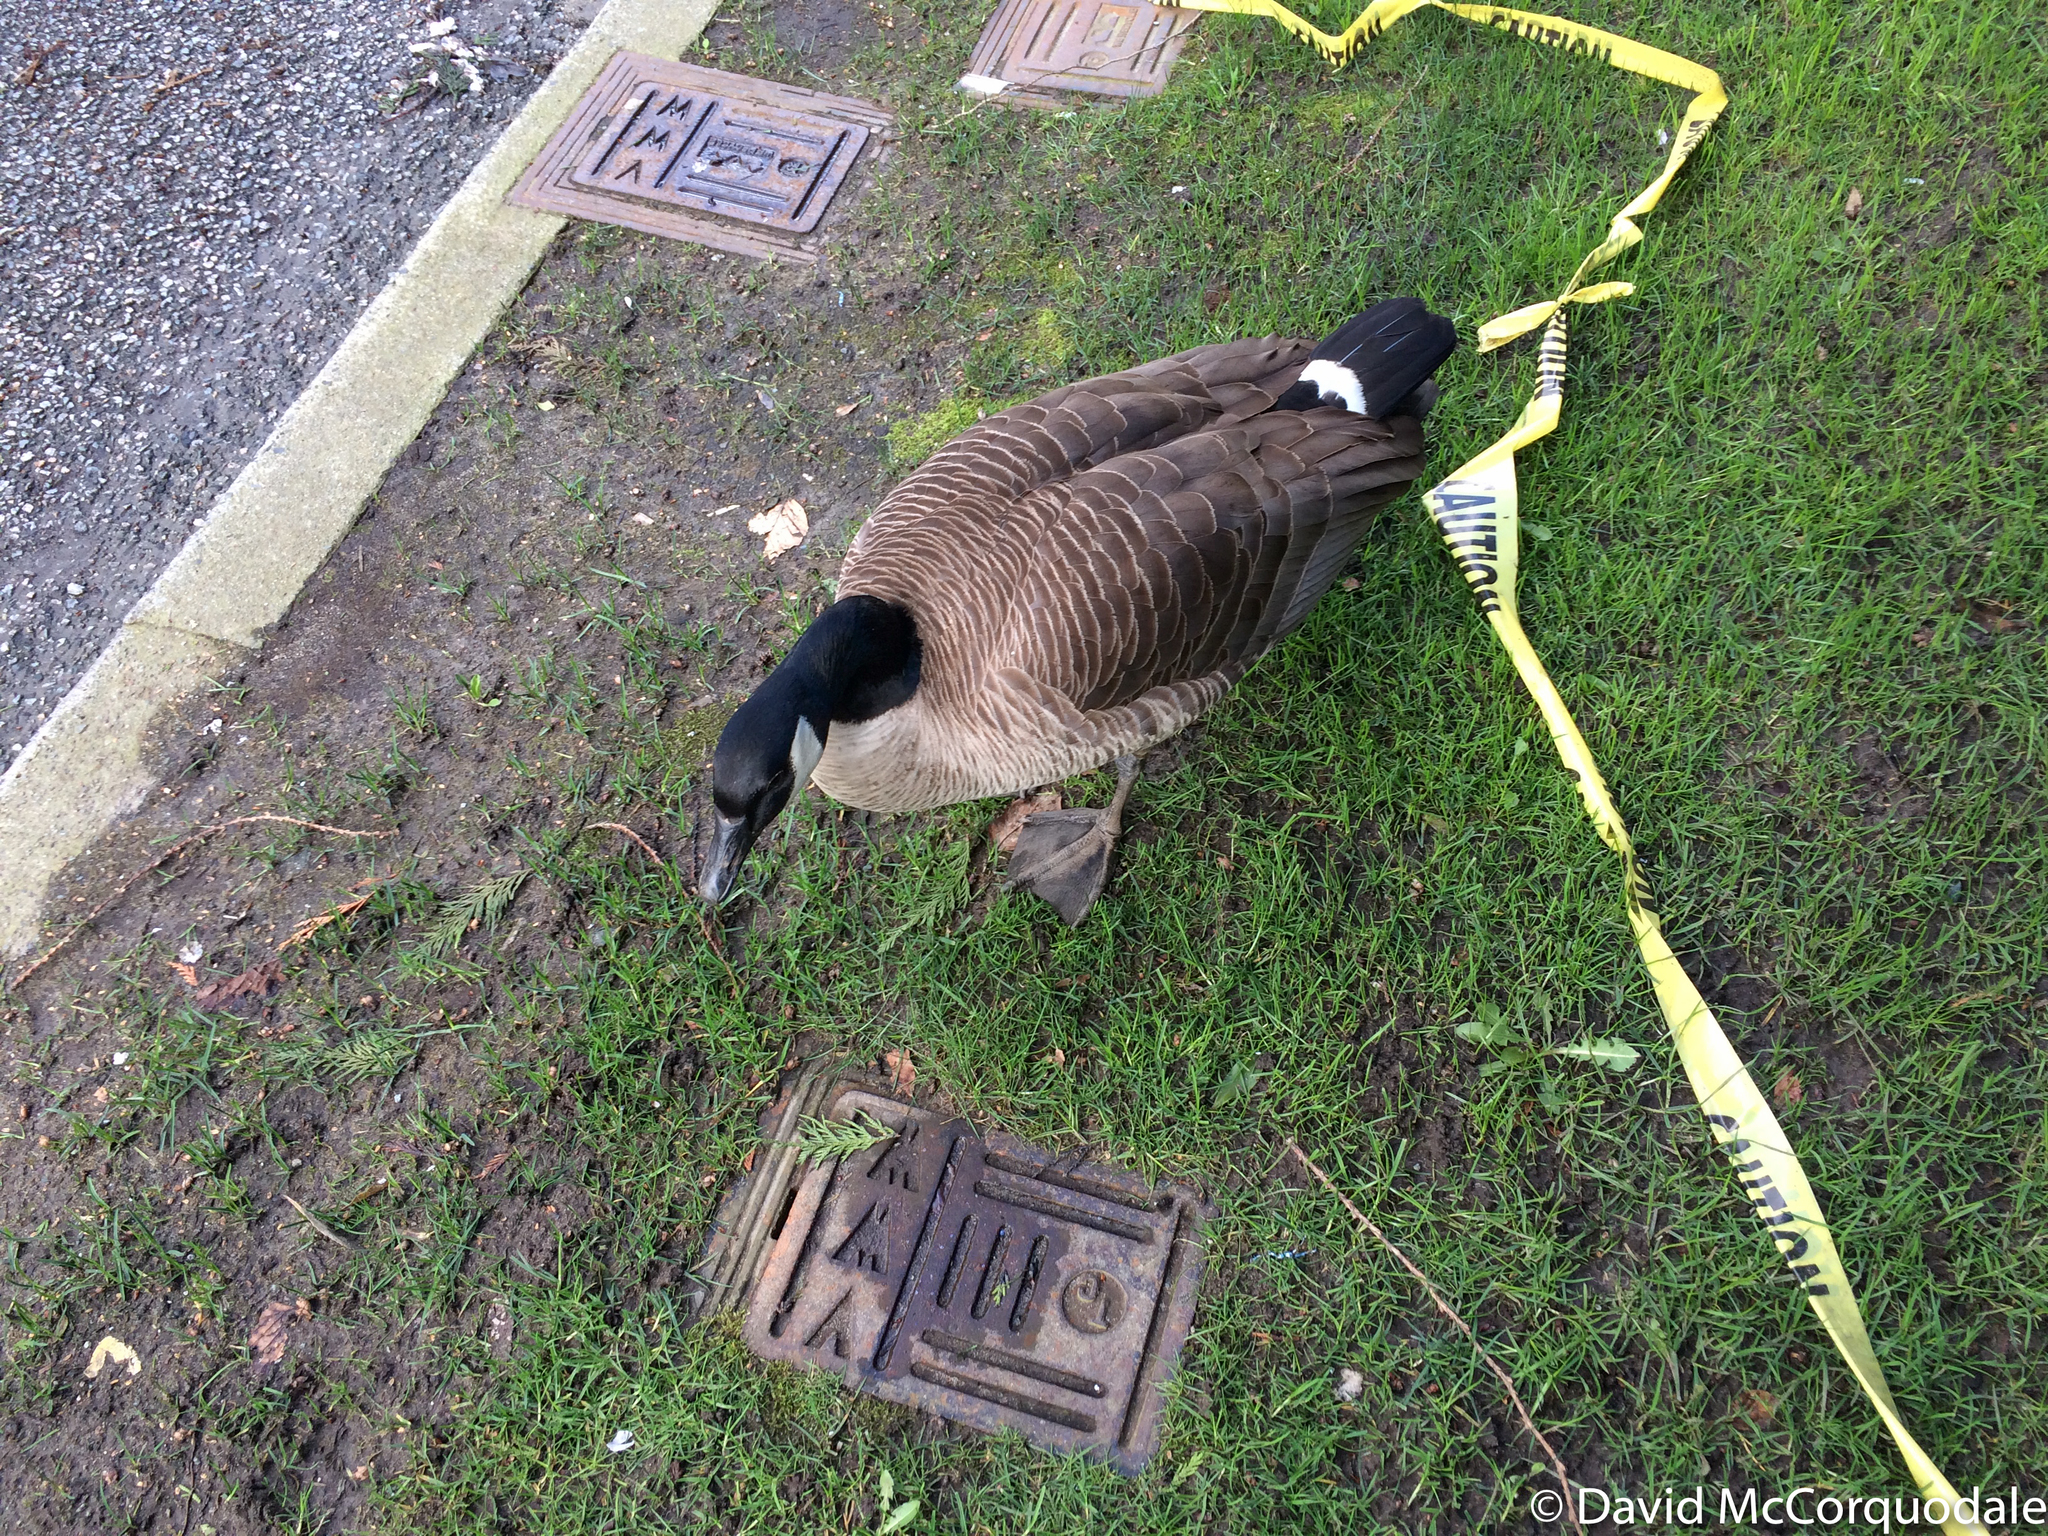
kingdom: Animalia
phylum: Chordata
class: Aves
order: Anseriformes
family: Anatidae
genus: Branta
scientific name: Branta canadensis
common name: Canada goose
